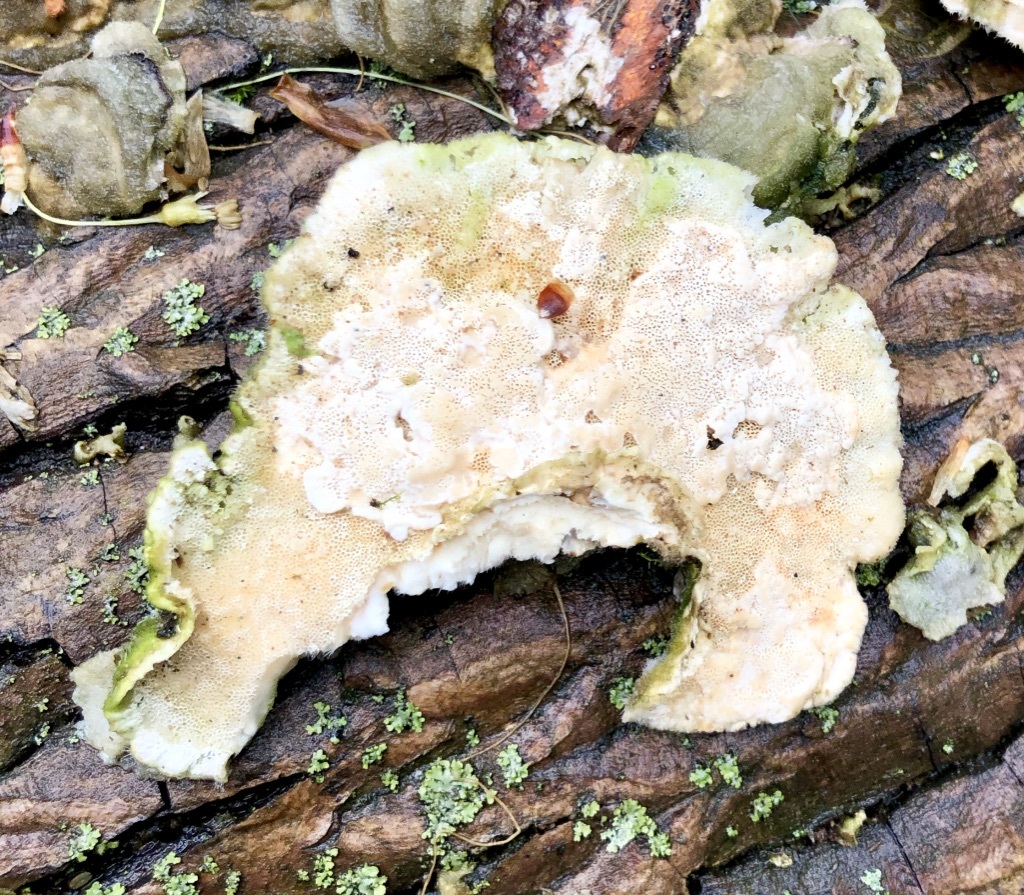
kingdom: Fungi
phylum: Basidiomycota
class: Agaricomycetes
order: Polyporales
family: Polyporaceae
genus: Trametes
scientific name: Trametes hirsuta
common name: Hairy bracket
